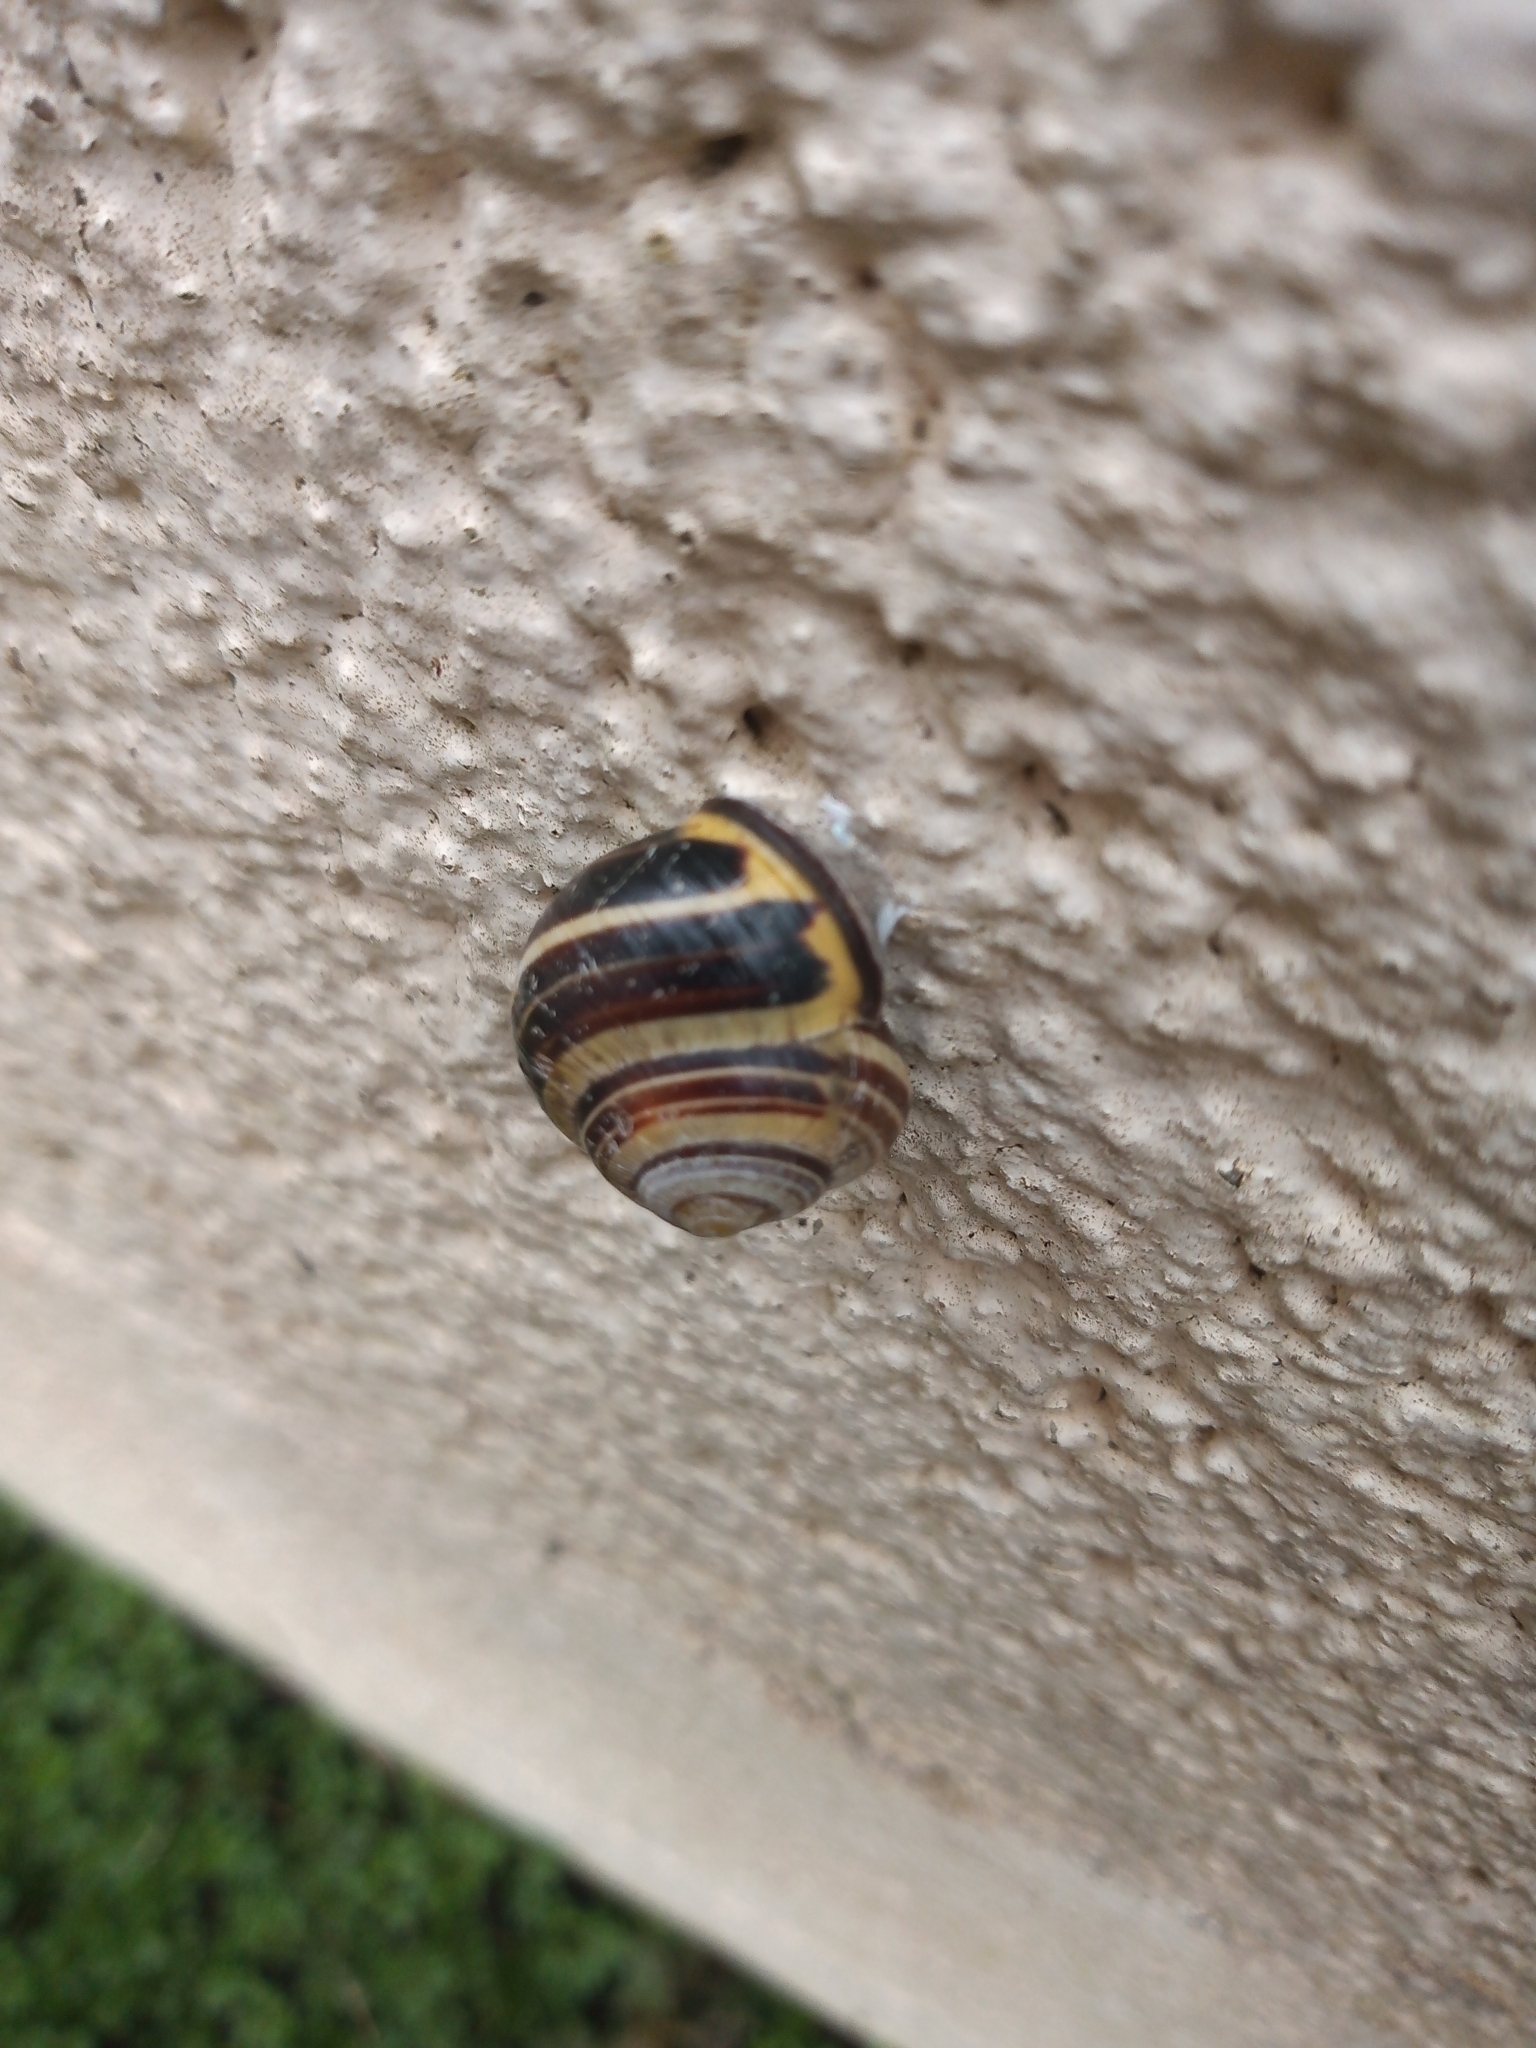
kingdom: Animalia
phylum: Mollusca
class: Gastropoda
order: Stylommatophora
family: Helicidae
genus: Cepaea
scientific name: Cepaea nemoralis
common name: Grovesnail
